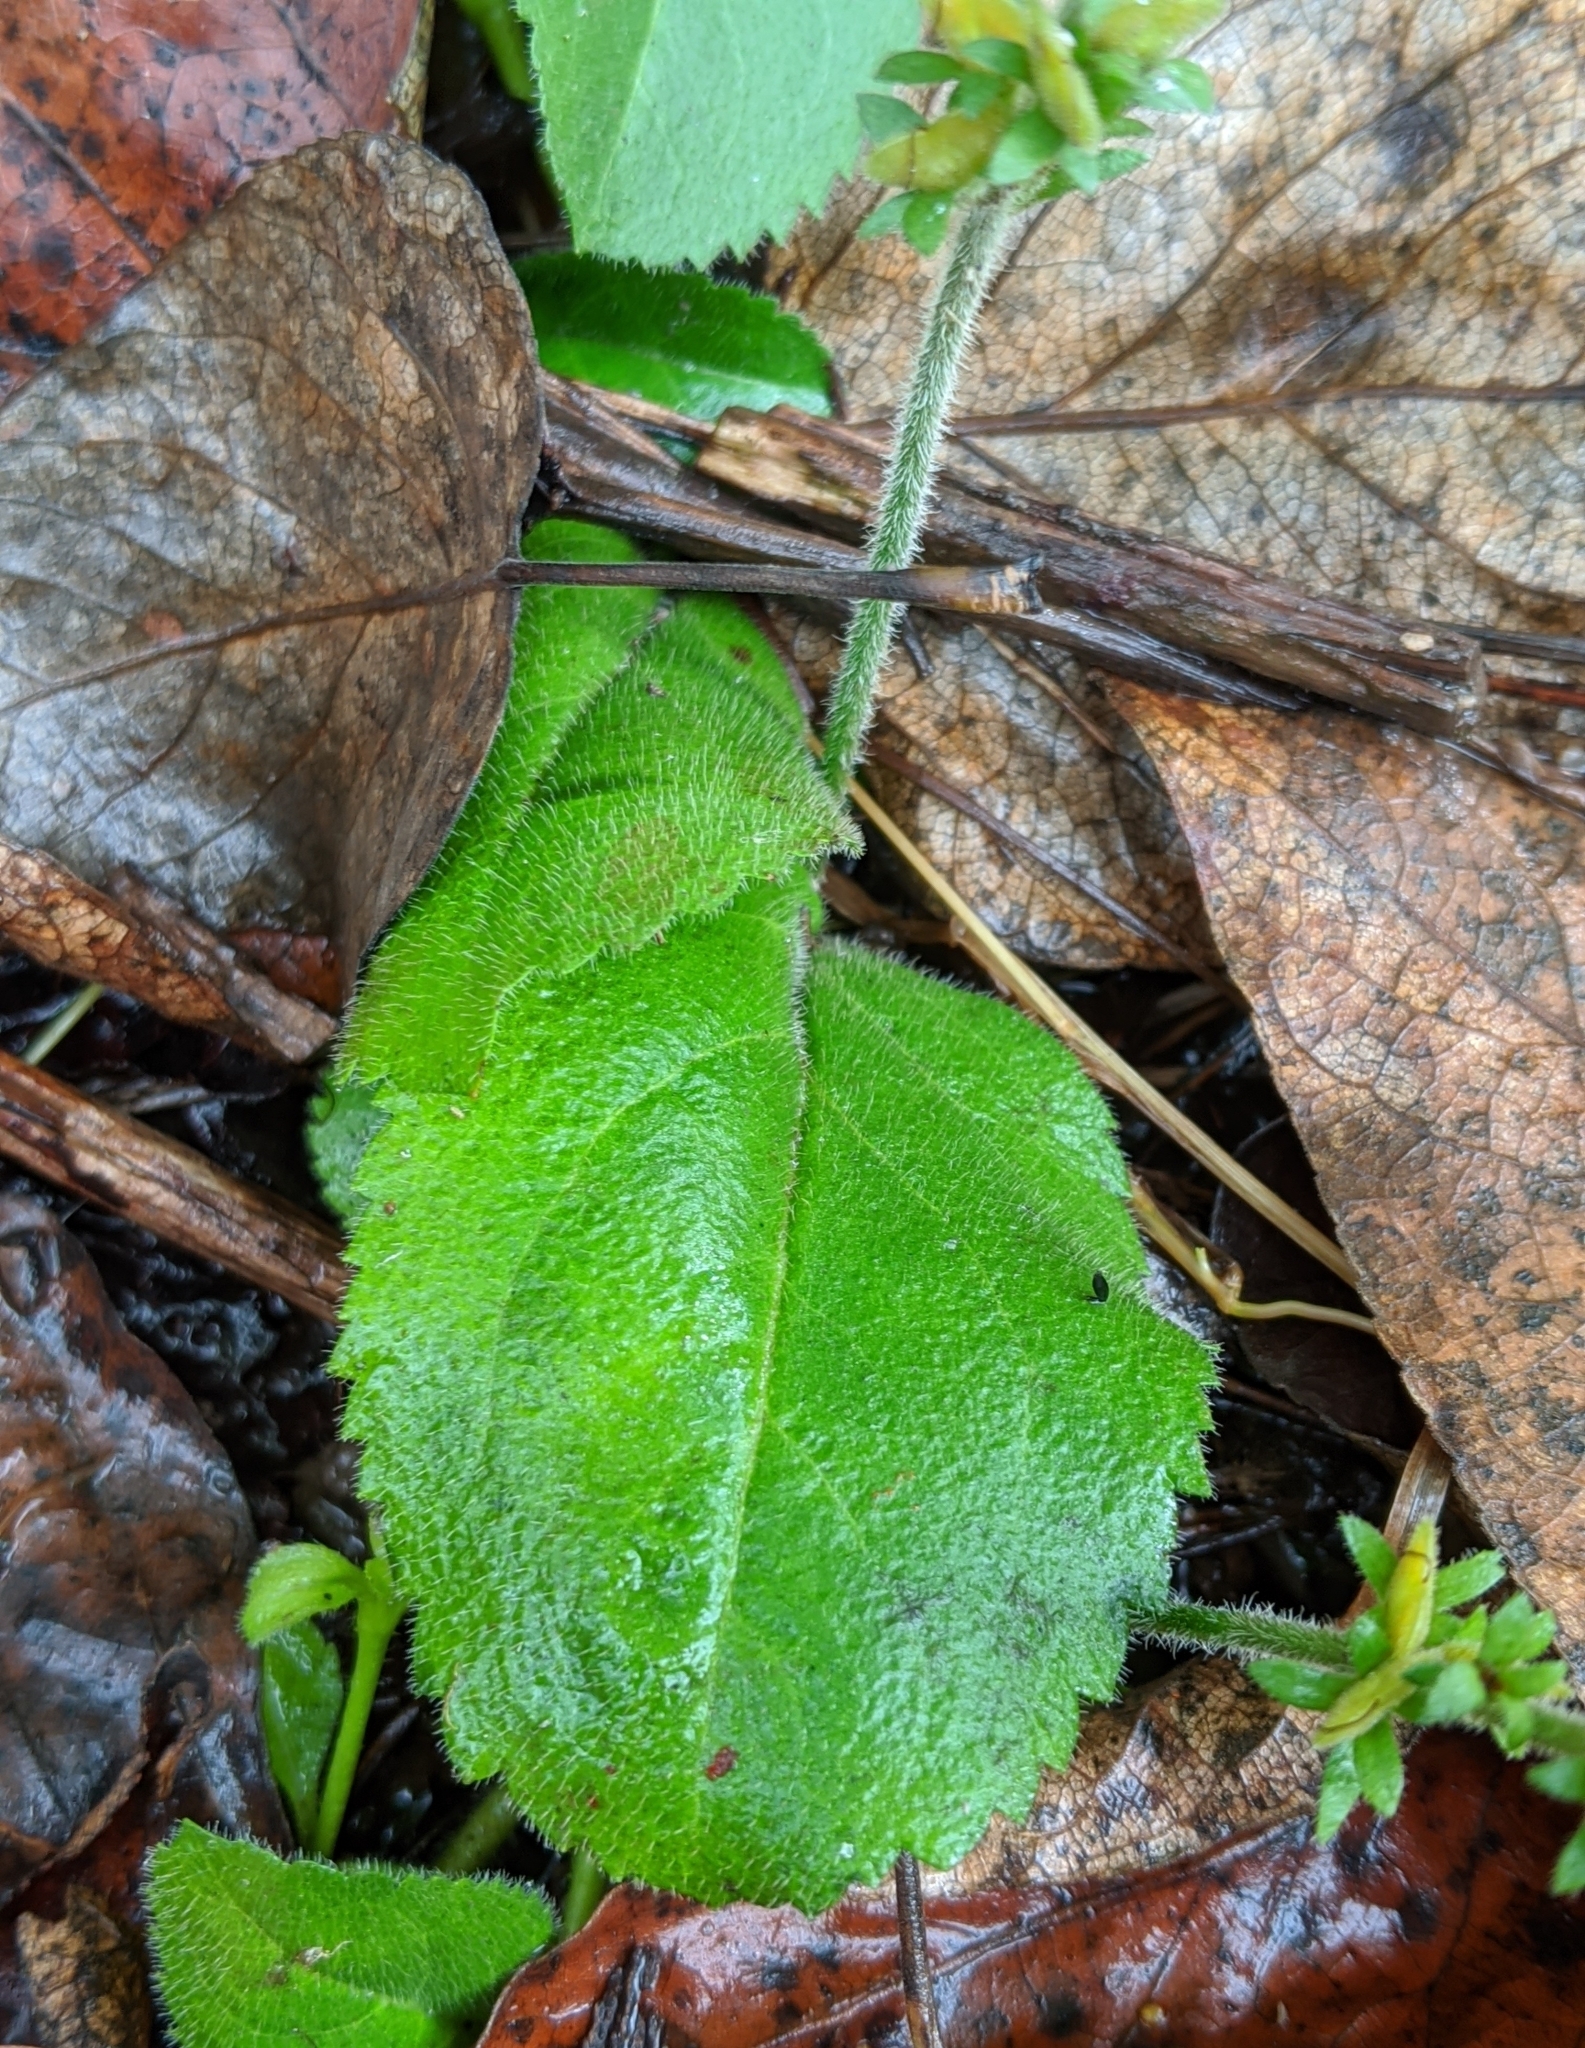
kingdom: Plantae
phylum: Tracheophyta
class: Magnoliopsida
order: Lamiales
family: Plantaginaceae
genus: Veronica
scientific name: Veronica officinalis
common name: Common speedwell
